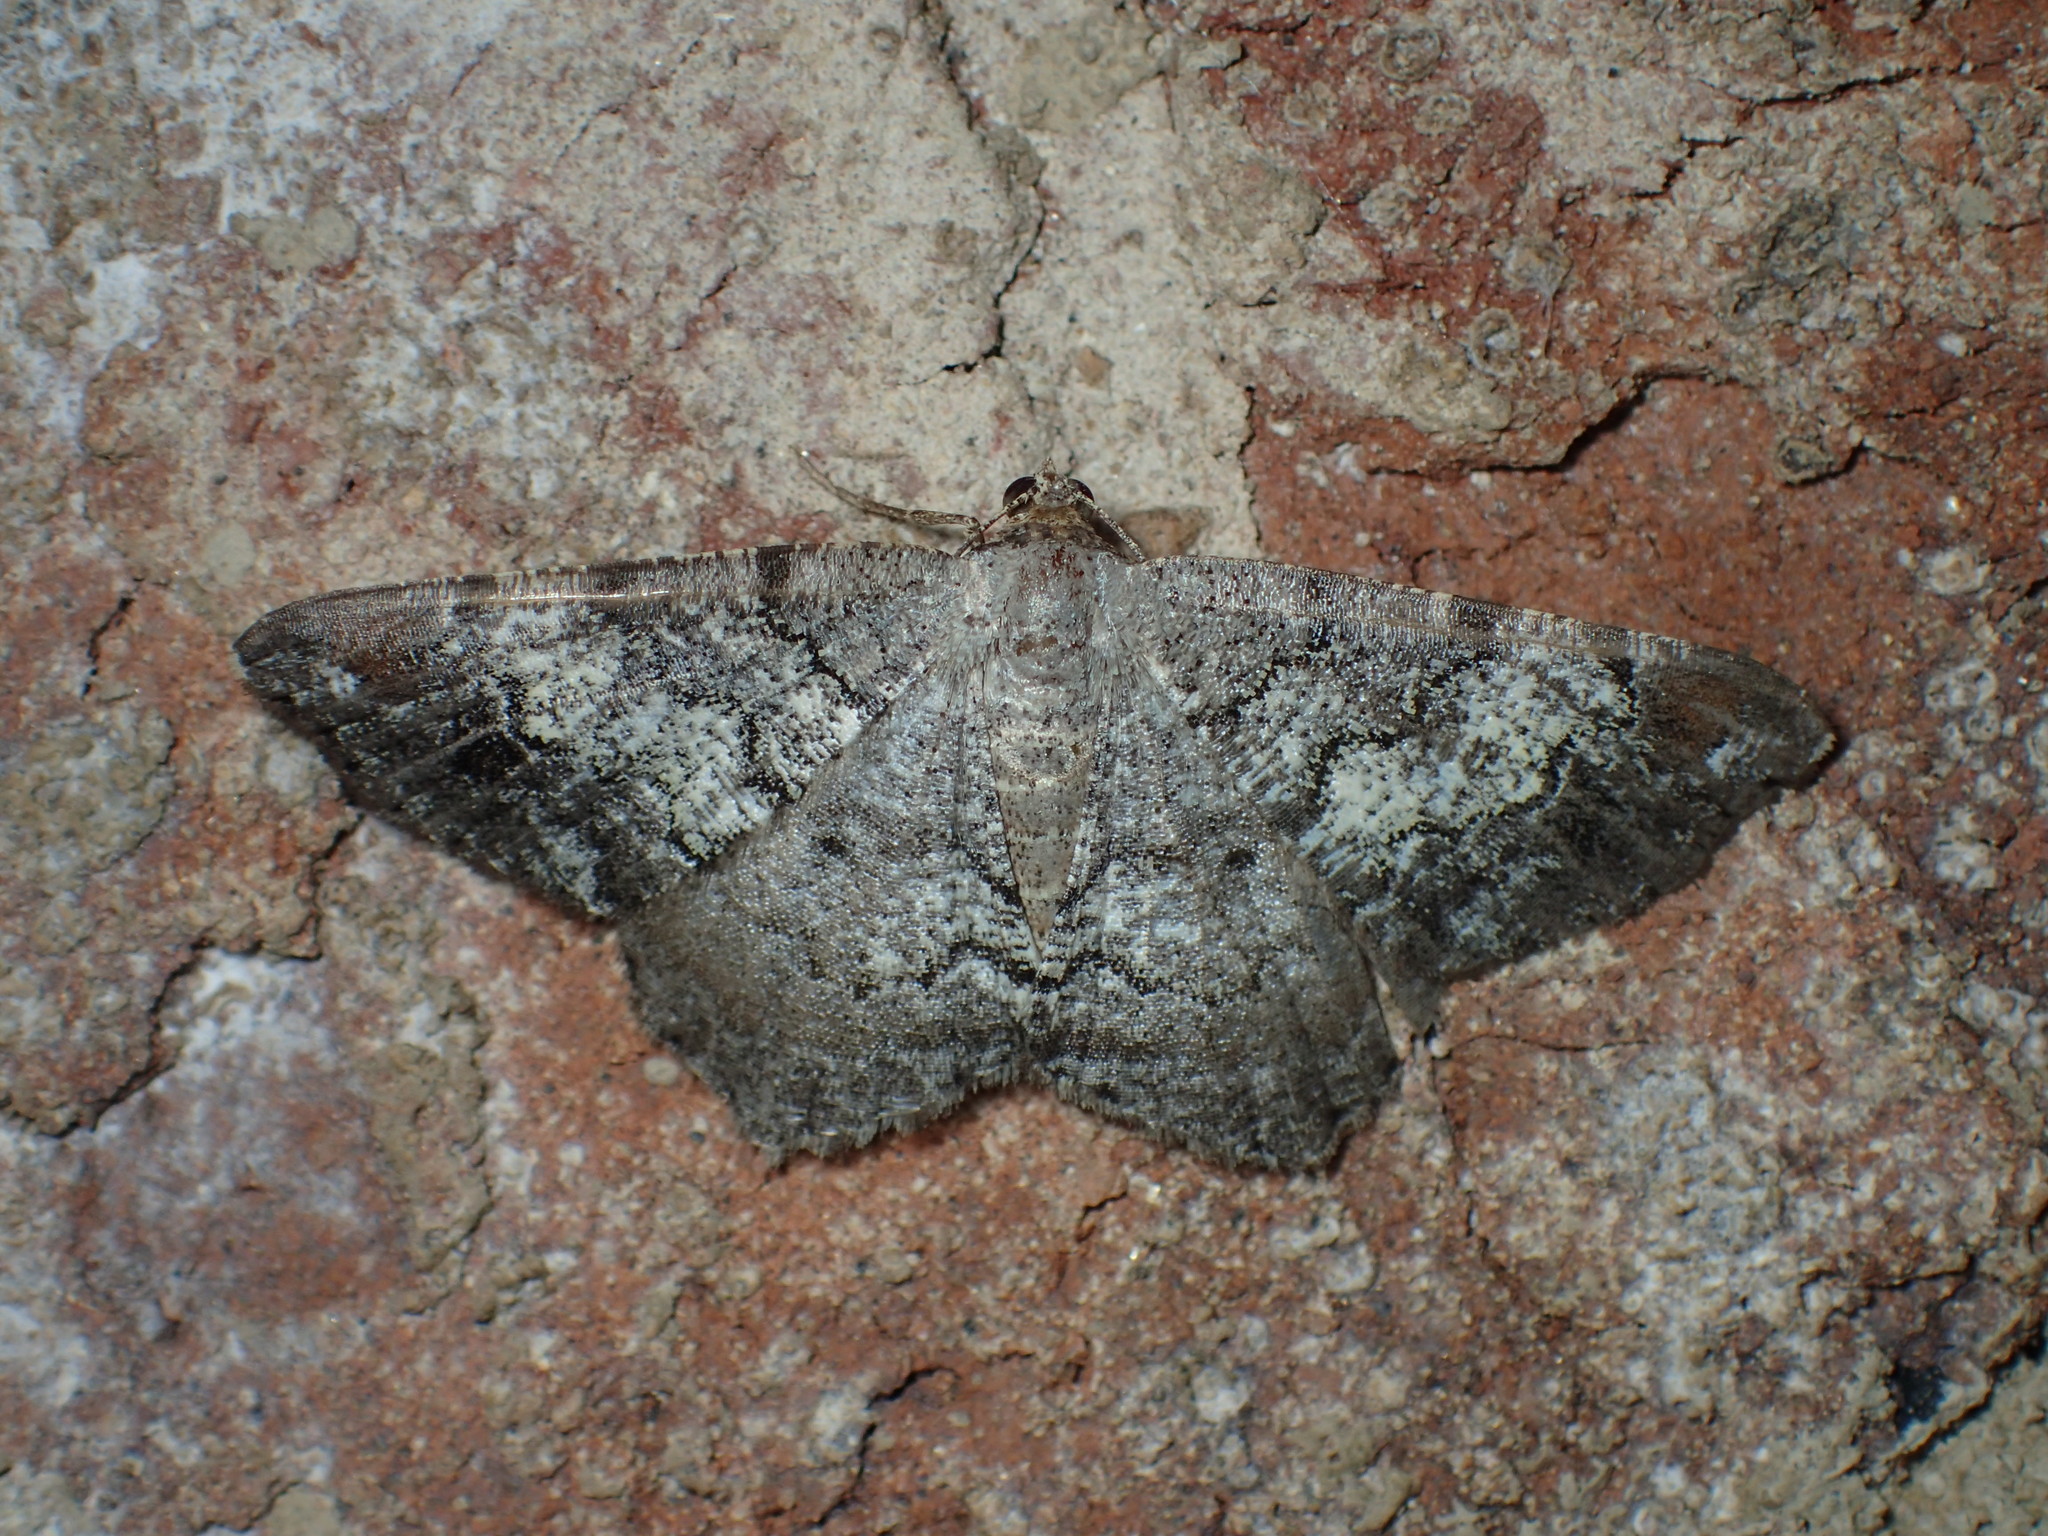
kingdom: Animalia
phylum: Arthropoda
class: Insecta
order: Lepidoptera
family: Geometridae
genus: Macaria
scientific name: Macaria distribuaria
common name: Southern chocolate angle
